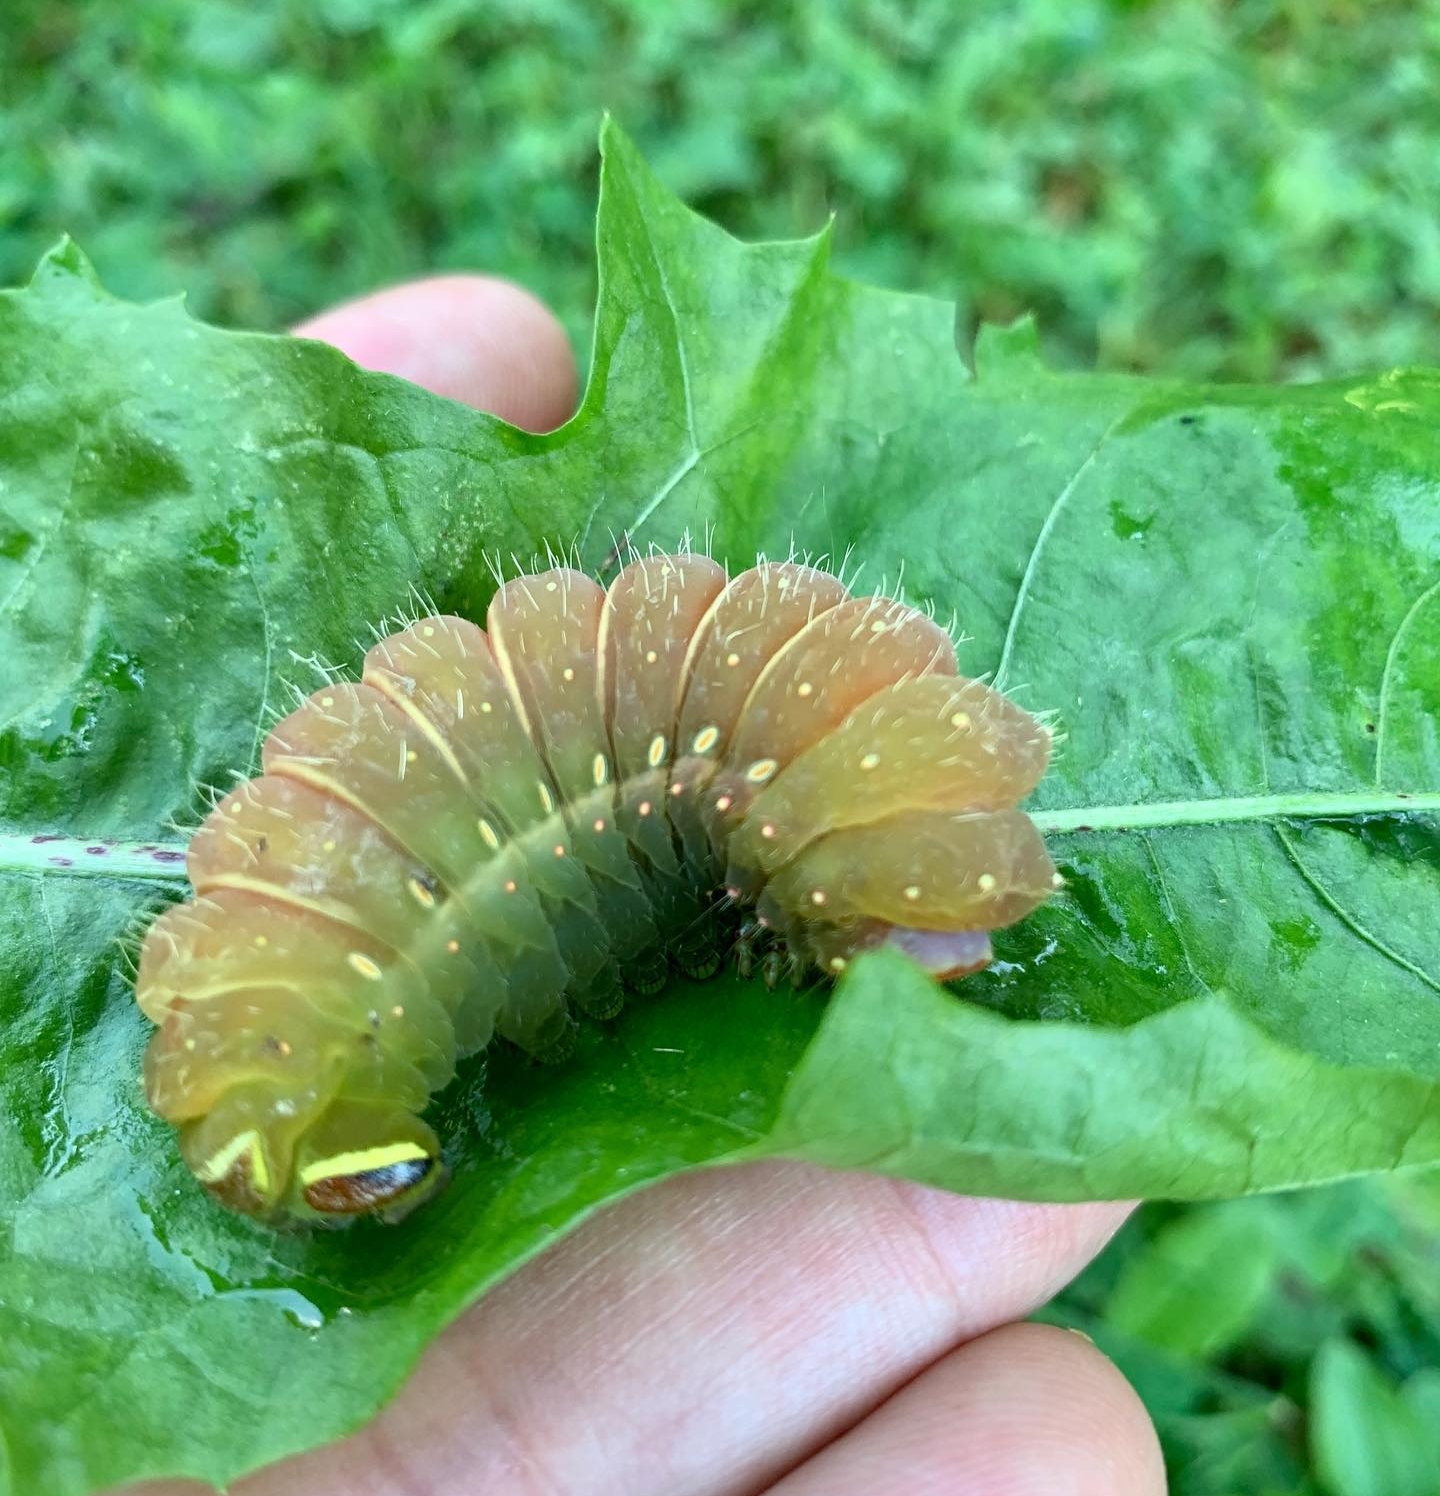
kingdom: Animalia
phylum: Arthropoda
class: Insecta
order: Lepidoptera
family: Saturniidae
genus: Actias
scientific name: Actias luna
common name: Luna moth
